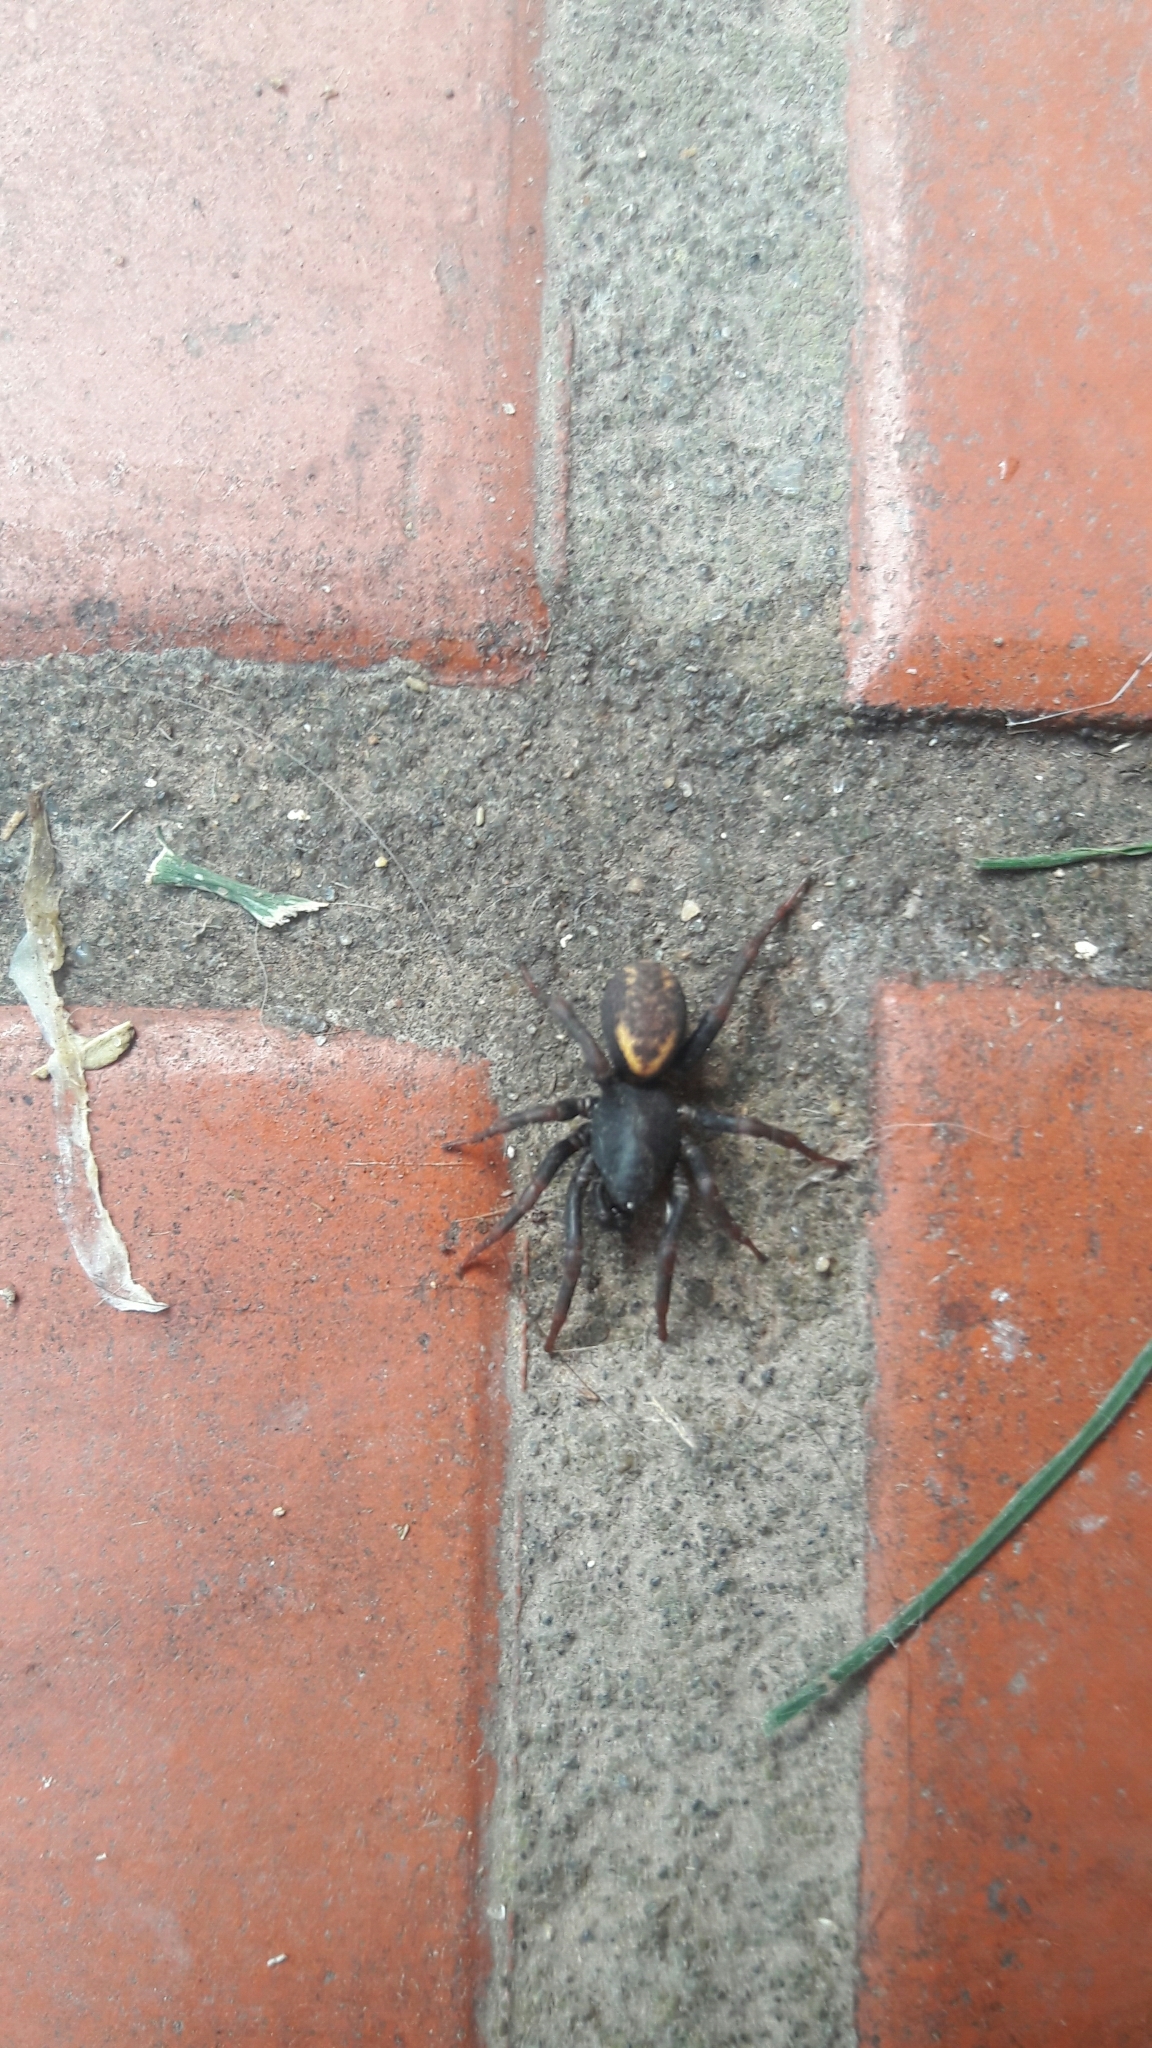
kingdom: Animalia
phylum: Arthropoda
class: Arachnida
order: Araneae
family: Zodariidae
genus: Cybaeodamus
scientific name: Cybaeodamus meridionalis
